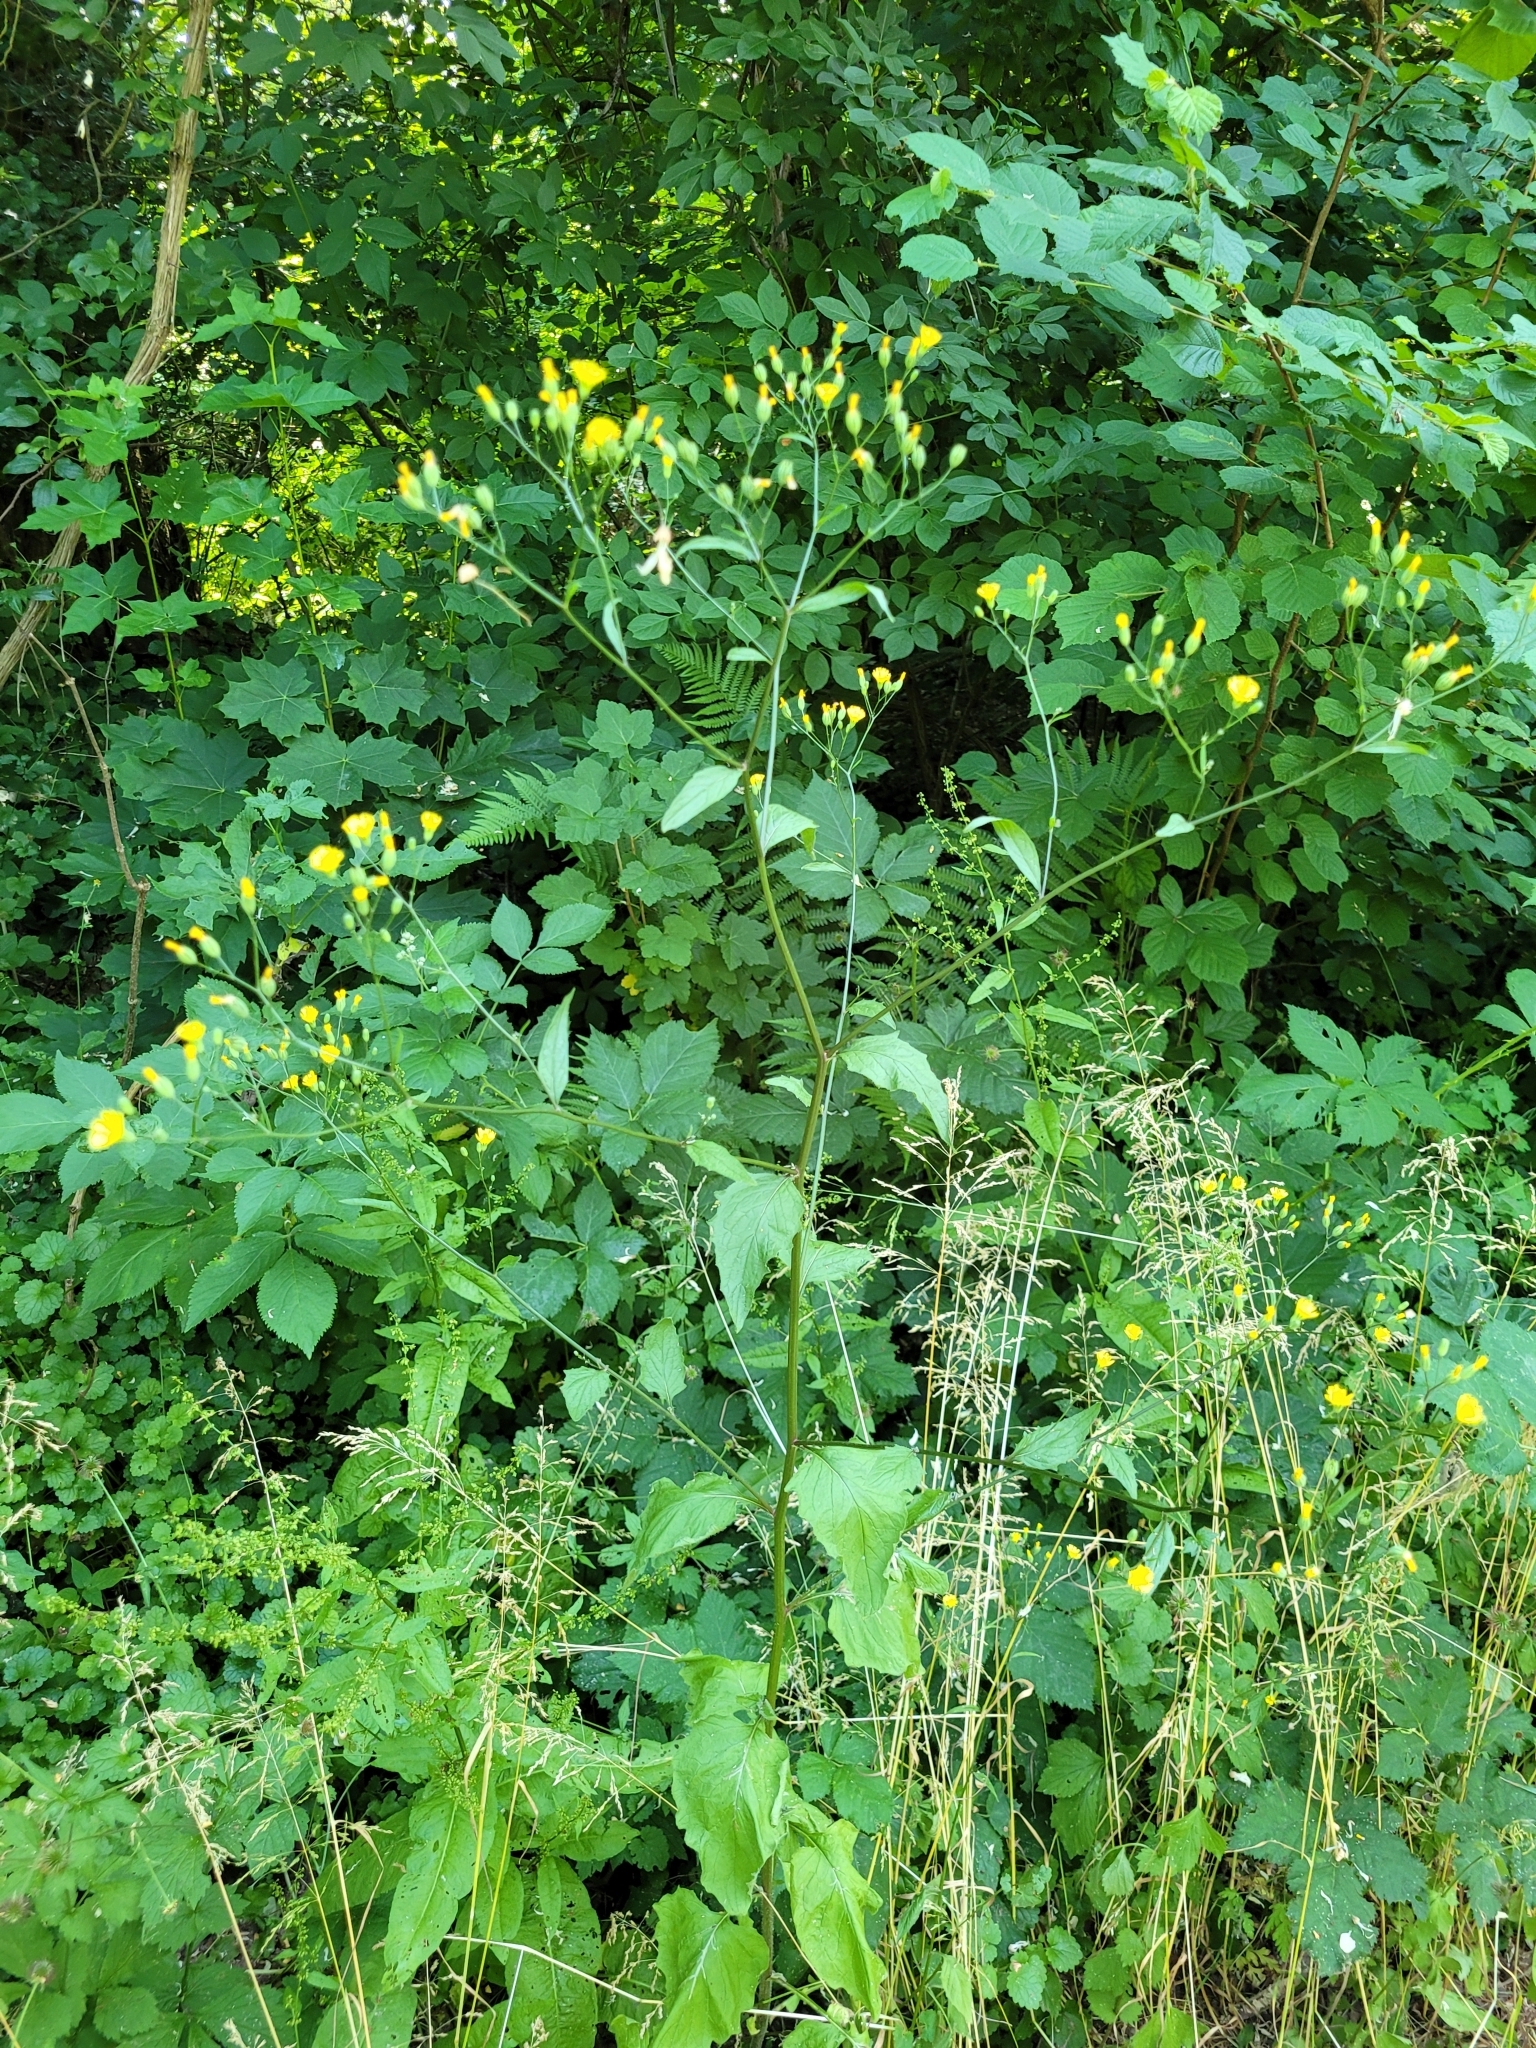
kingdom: Plantae
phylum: Tracheophyta
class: Magnoliopsida
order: Asterales
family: Asteraceae
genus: Lapsana
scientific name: Lapsana communis
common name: Nipplewort
